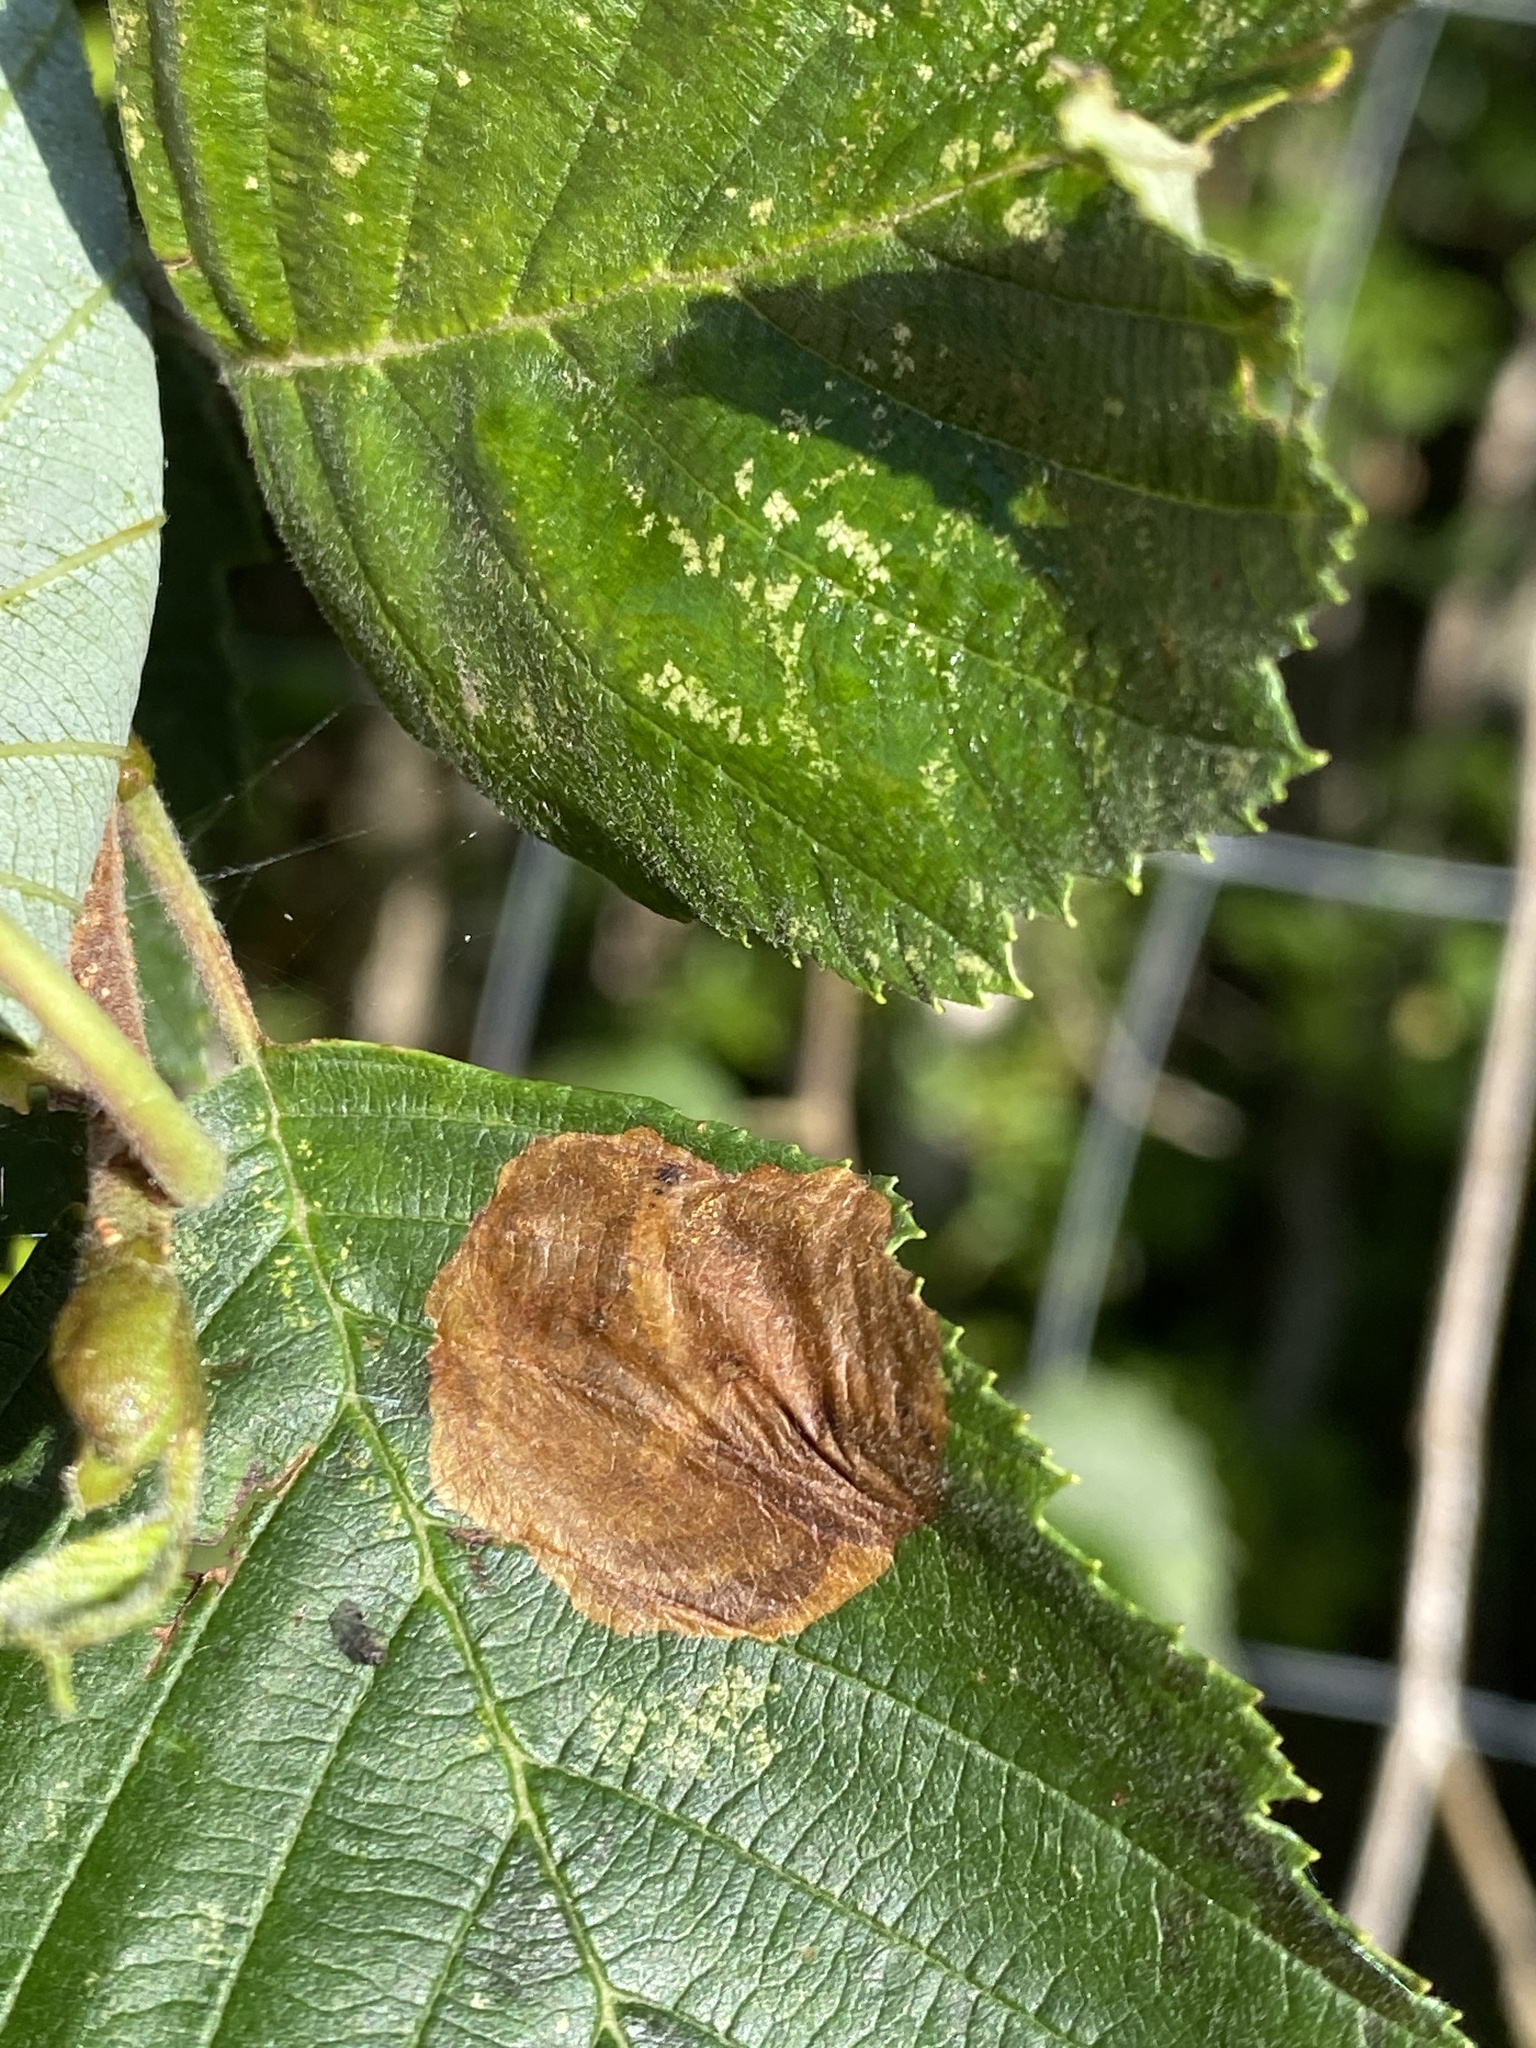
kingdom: Animalia
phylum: Arthropoda
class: Insecta
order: Hymenoptera
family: Tenthredinidae
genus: Heterarthrus
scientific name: Heterarthrus vagans
